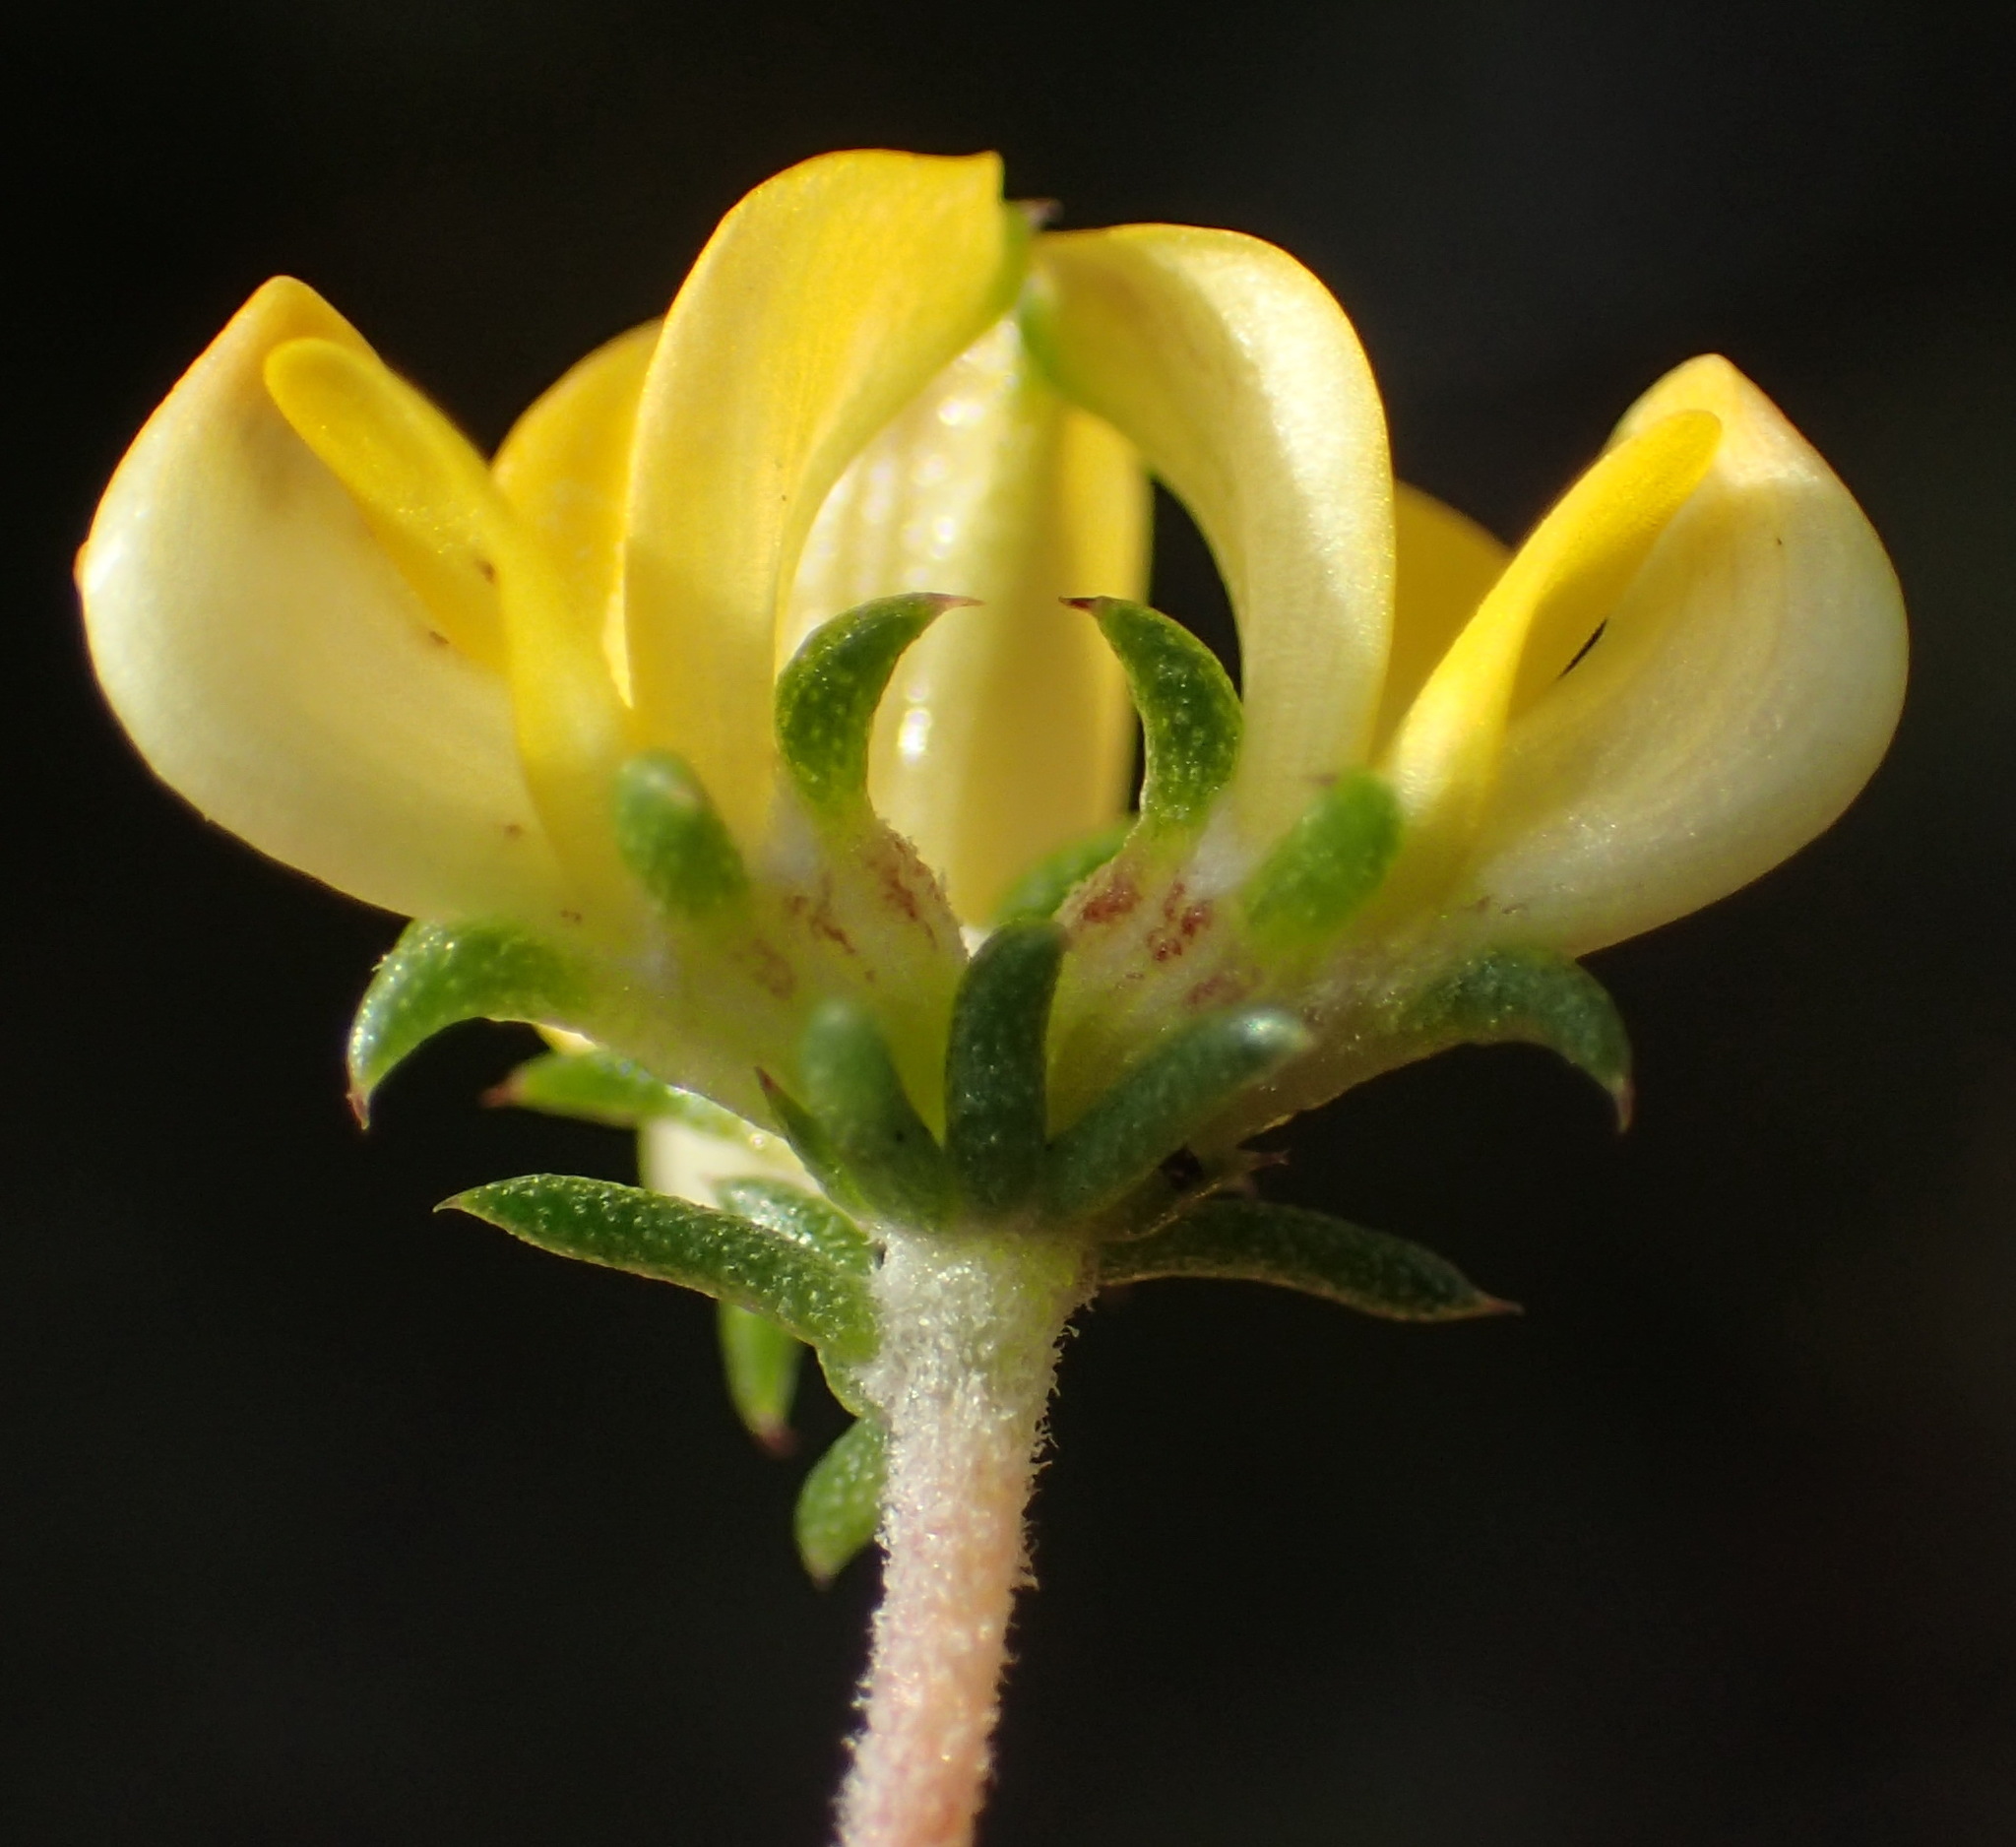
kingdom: Plantae
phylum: Tracheophyta
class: Magnoliopsida
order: Fabales
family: Fabaceae
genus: Aspalathus
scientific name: Aspalathus crassisepala
